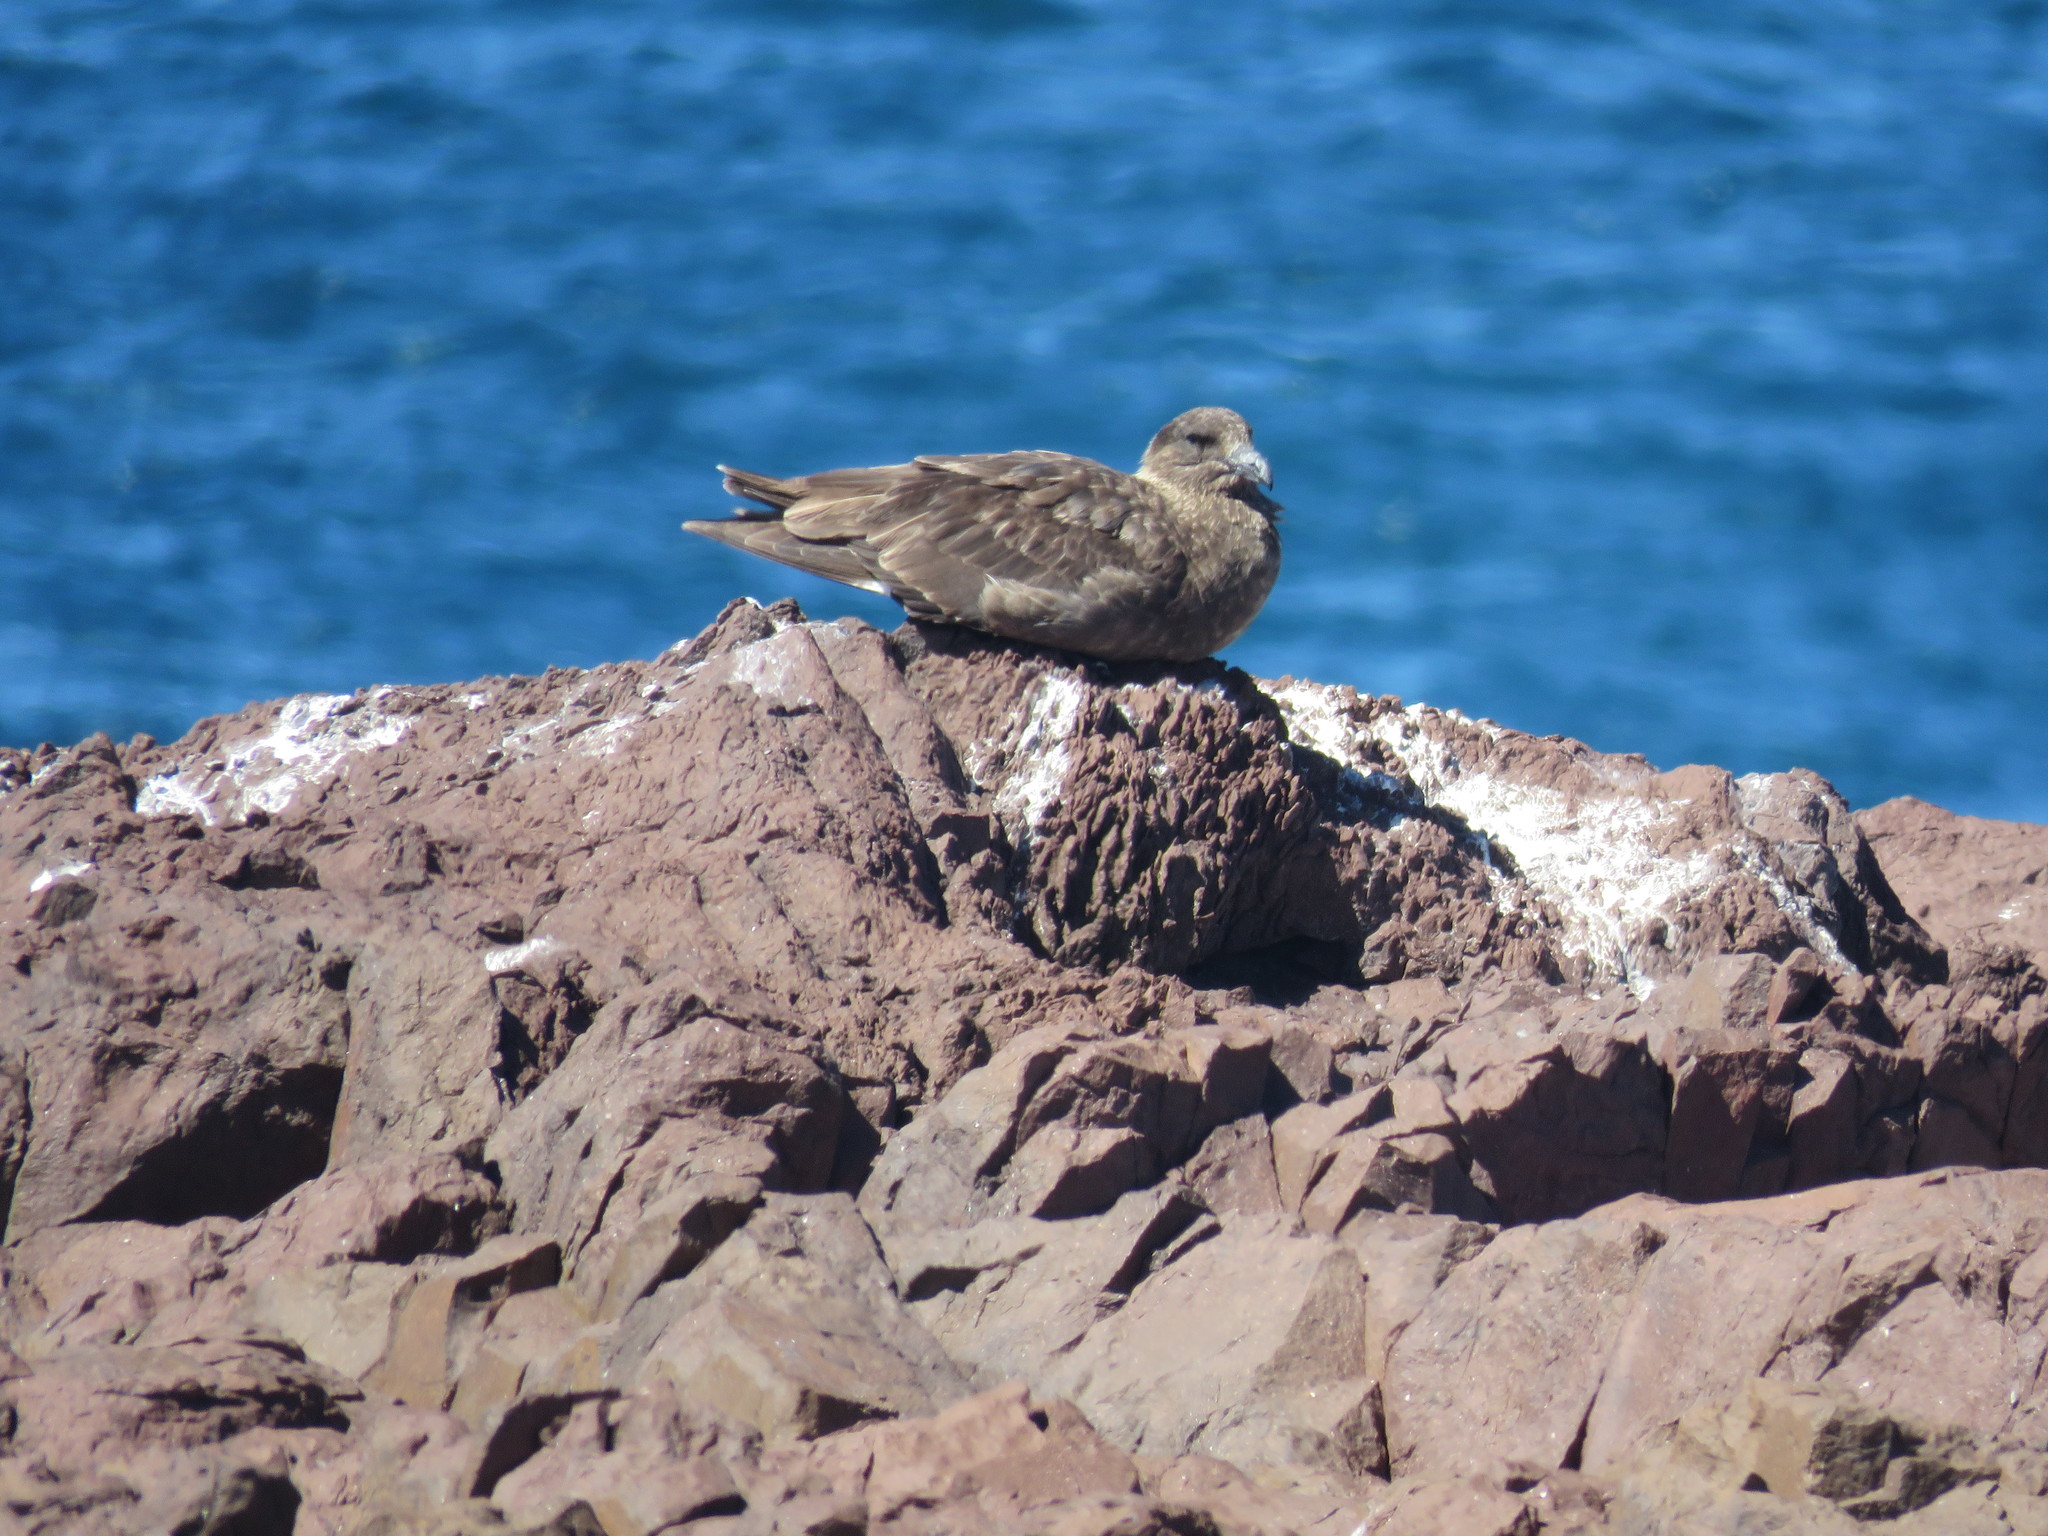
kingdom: Animalia
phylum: Chordata
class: Aves
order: Charadriiformes
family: Stercorariidae
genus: Stercorarius
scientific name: Stercorarius antarcticus
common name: Brown skua
